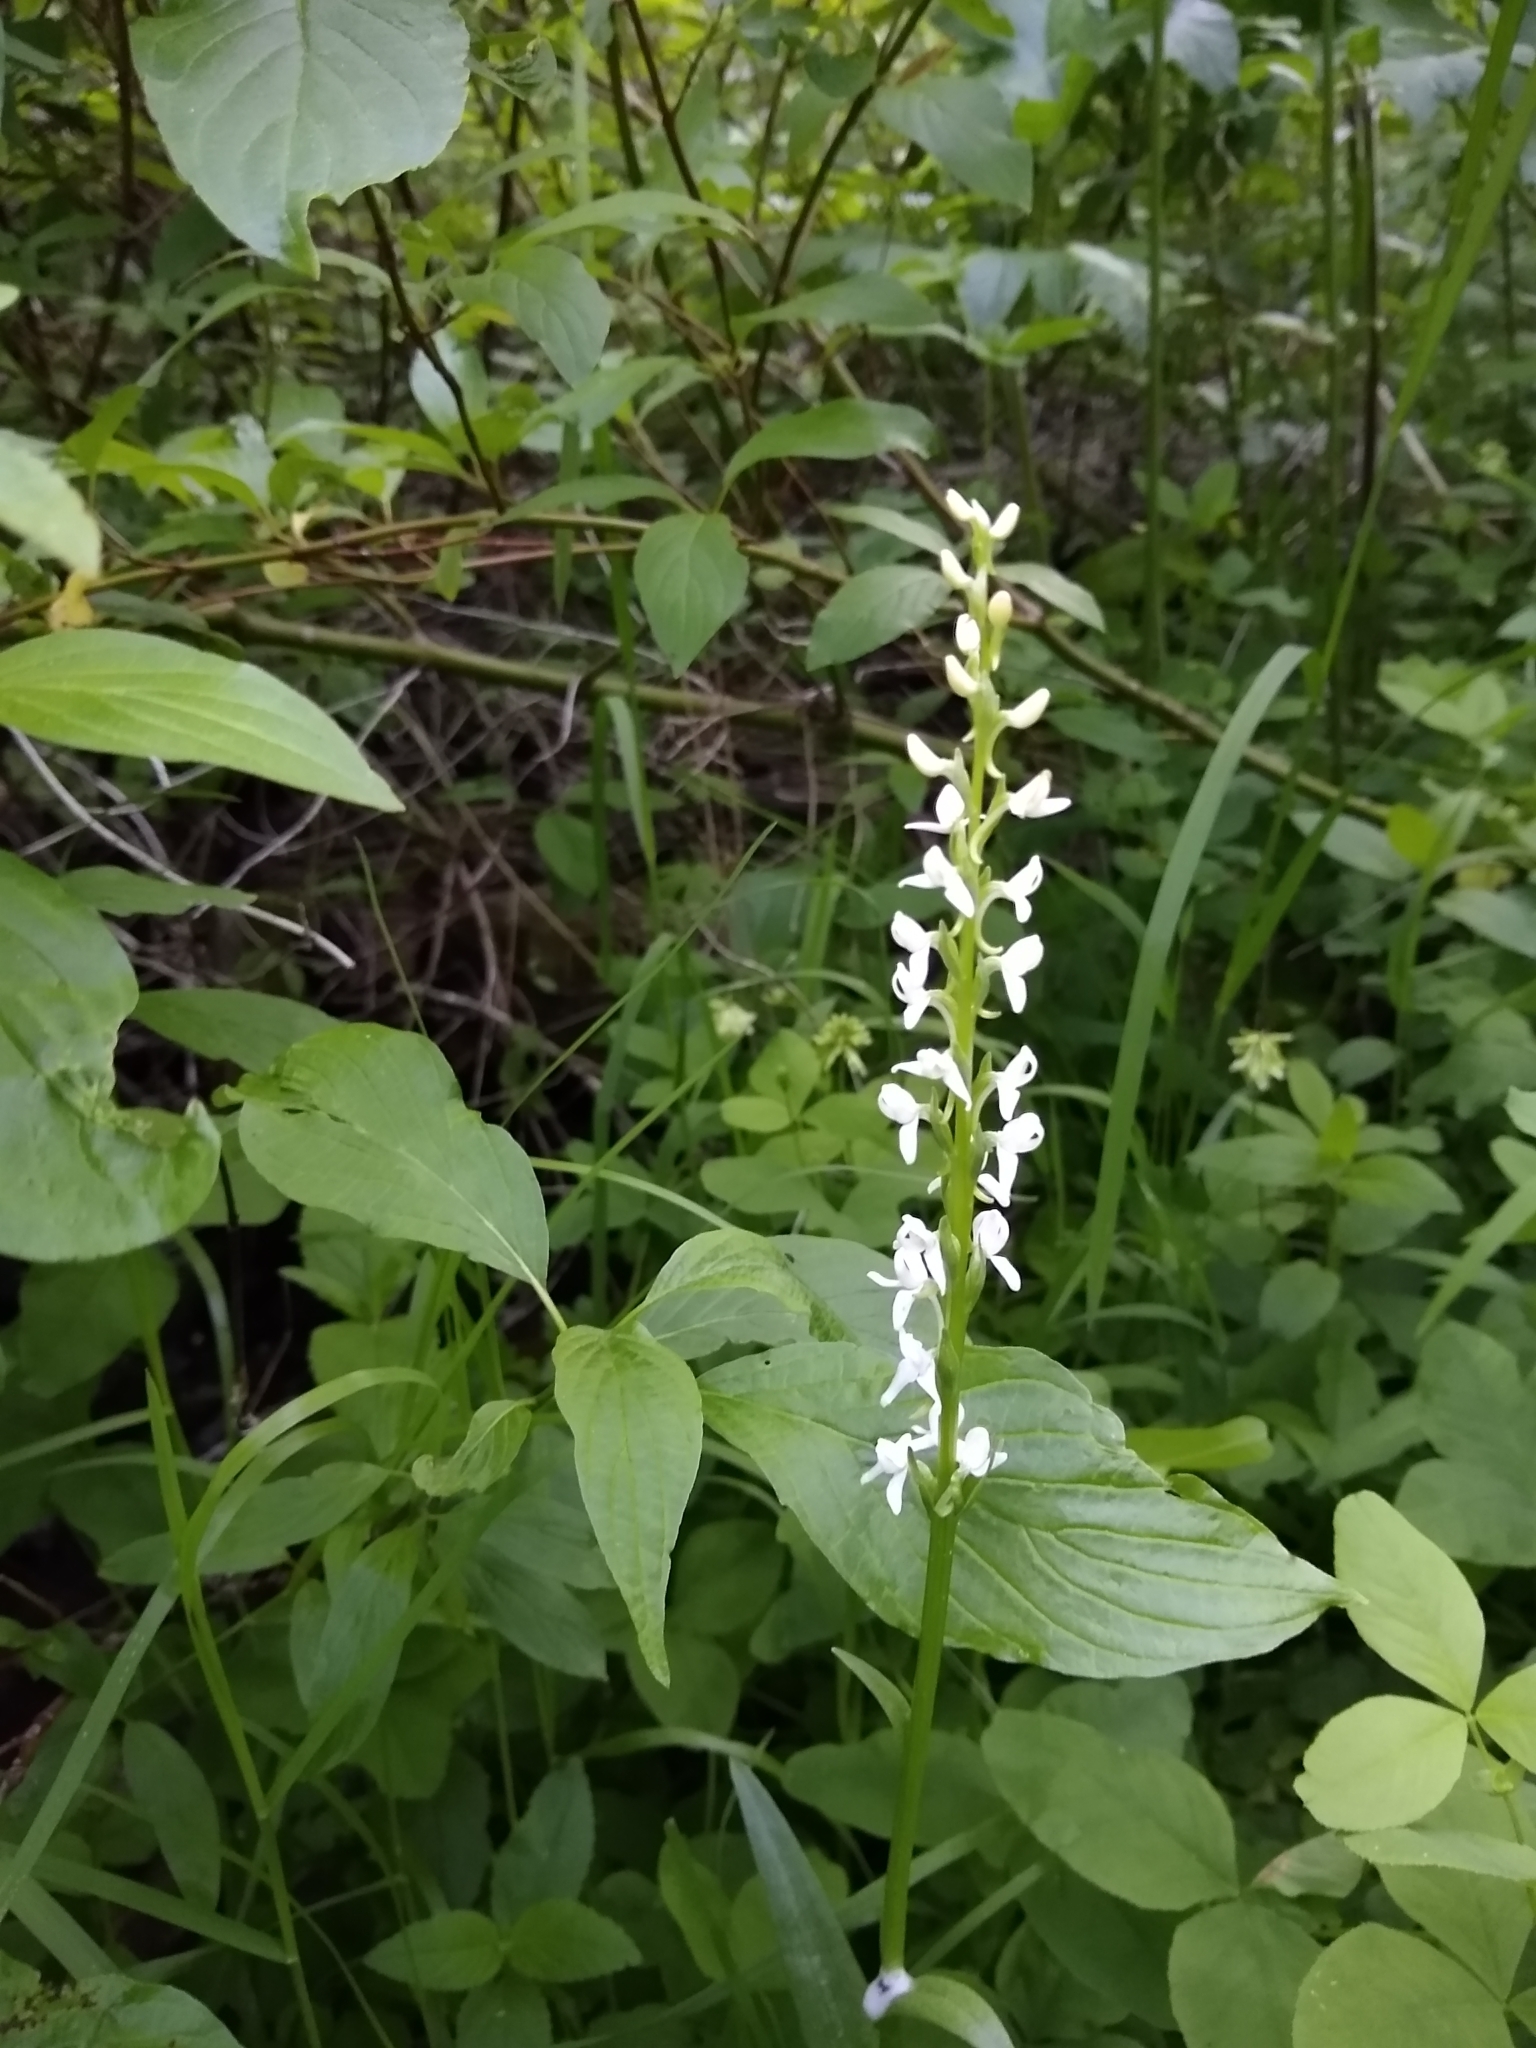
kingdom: Plantae
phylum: Tracheophyta
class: Liliopsida
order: Asparagales
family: Orchidaceae
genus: Platanthera
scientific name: Platanthera dilatata
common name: Bog candles
